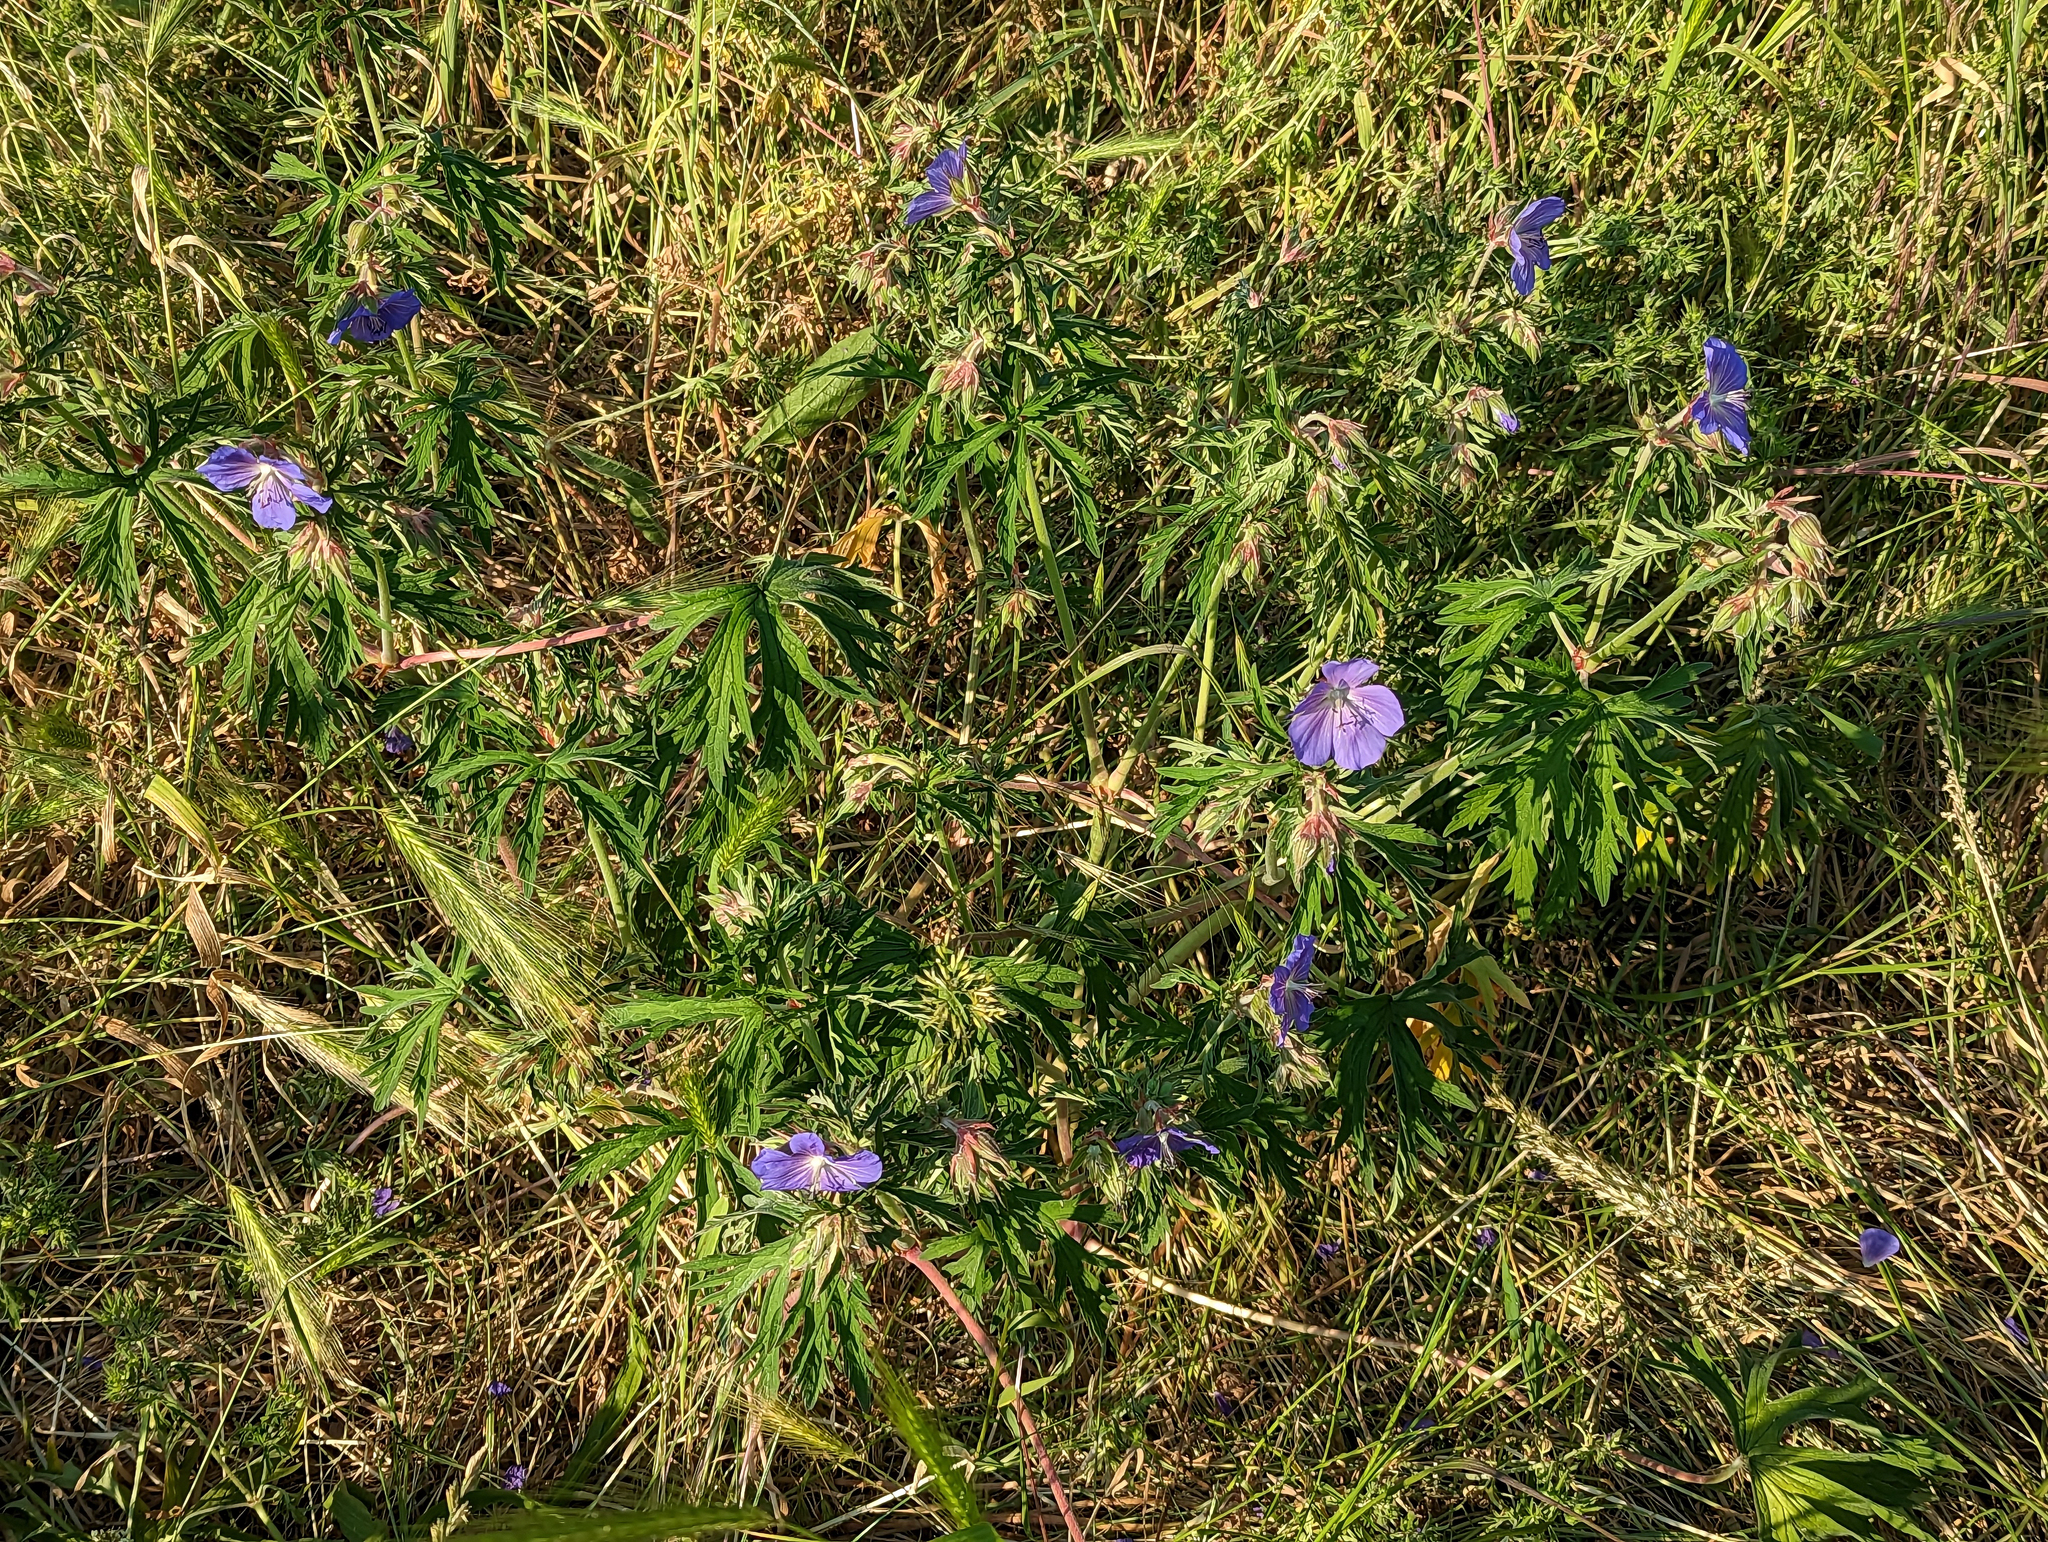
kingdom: Plantae
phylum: Tracheophyta
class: Magnoliopsida
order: Geraniales
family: Geraniaceae
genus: Geranium
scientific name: Geranium pratense
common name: Meadow crane's-bill
